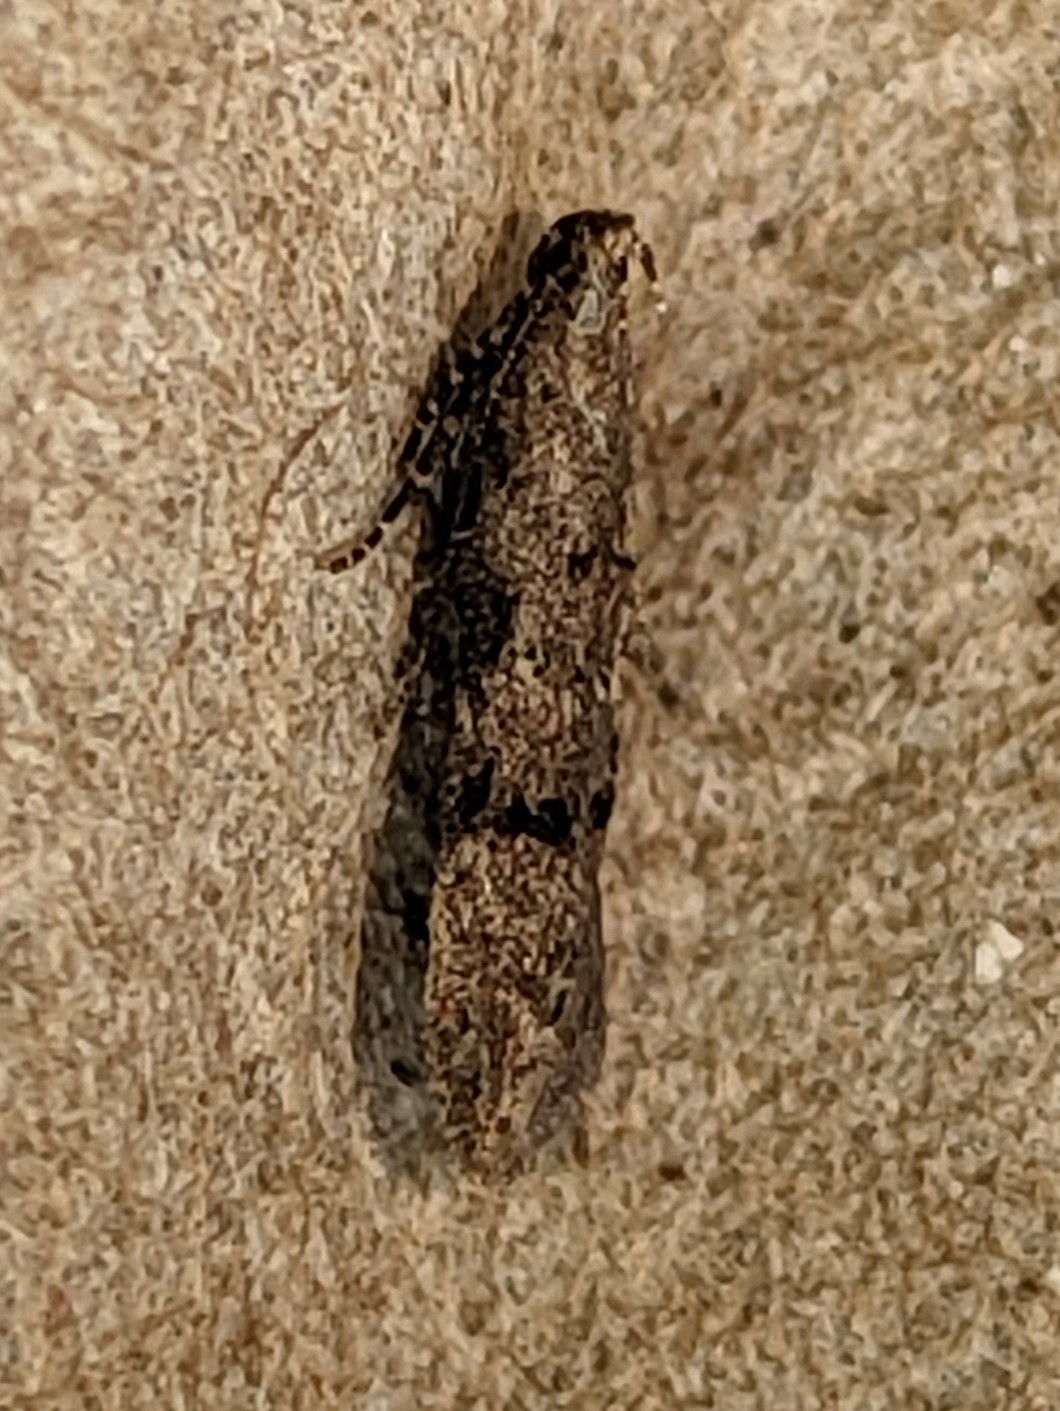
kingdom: Animalia
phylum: Arthropoda
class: Insecta
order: Lepidoptera
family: Gelechiidae
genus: Teleiodes
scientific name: Teleiodes vulgella
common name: Common groundling
